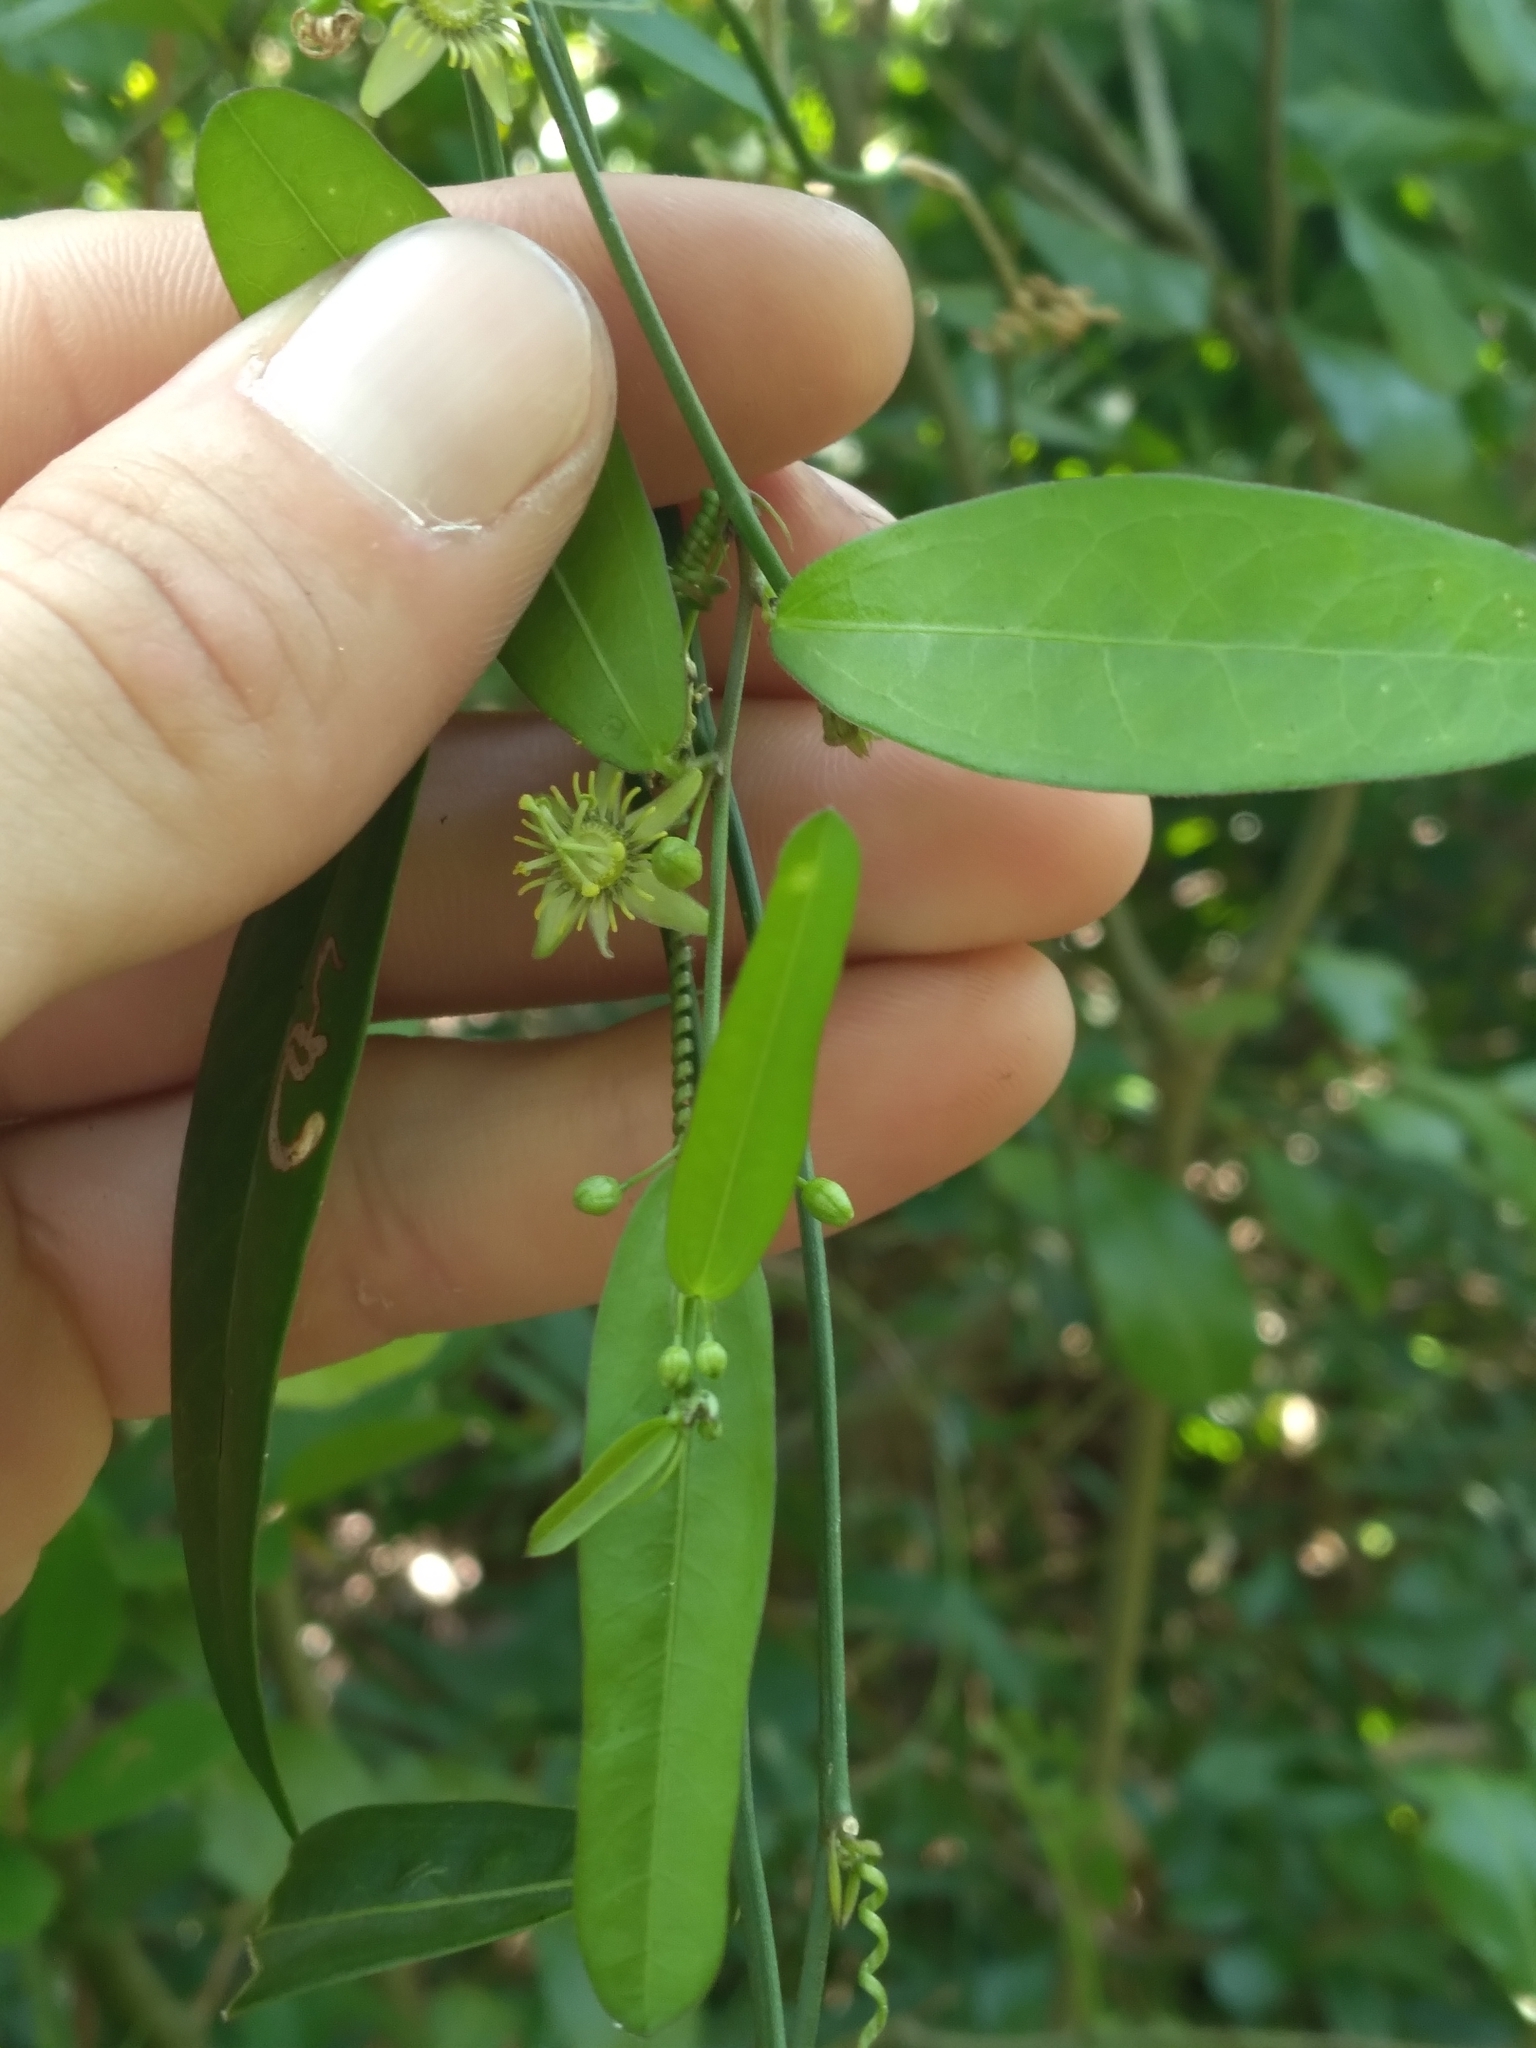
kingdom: Plantae
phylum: Tracheophyta
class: Magnoliopsida
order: Malpighiales
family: Passifloraceae
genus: Passiflora
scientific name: Passiflora pallida
